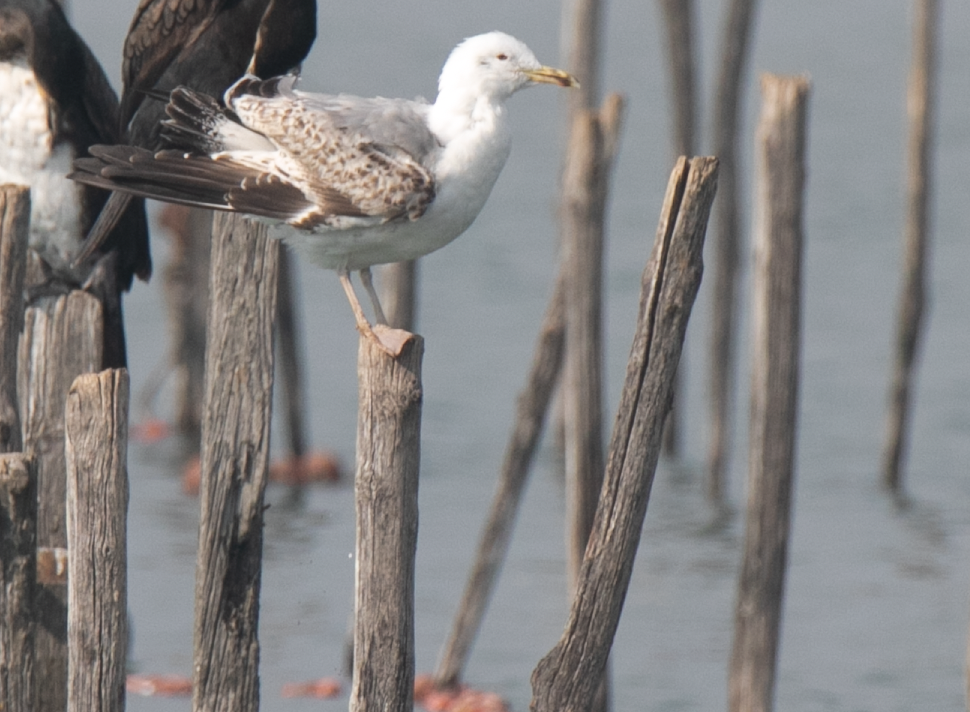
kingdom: Animalia
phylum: Chordata
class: Aves
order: Charadriiformes
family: Laridae
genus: Larus
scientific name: Larus cachinnans
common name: Caspian gull
